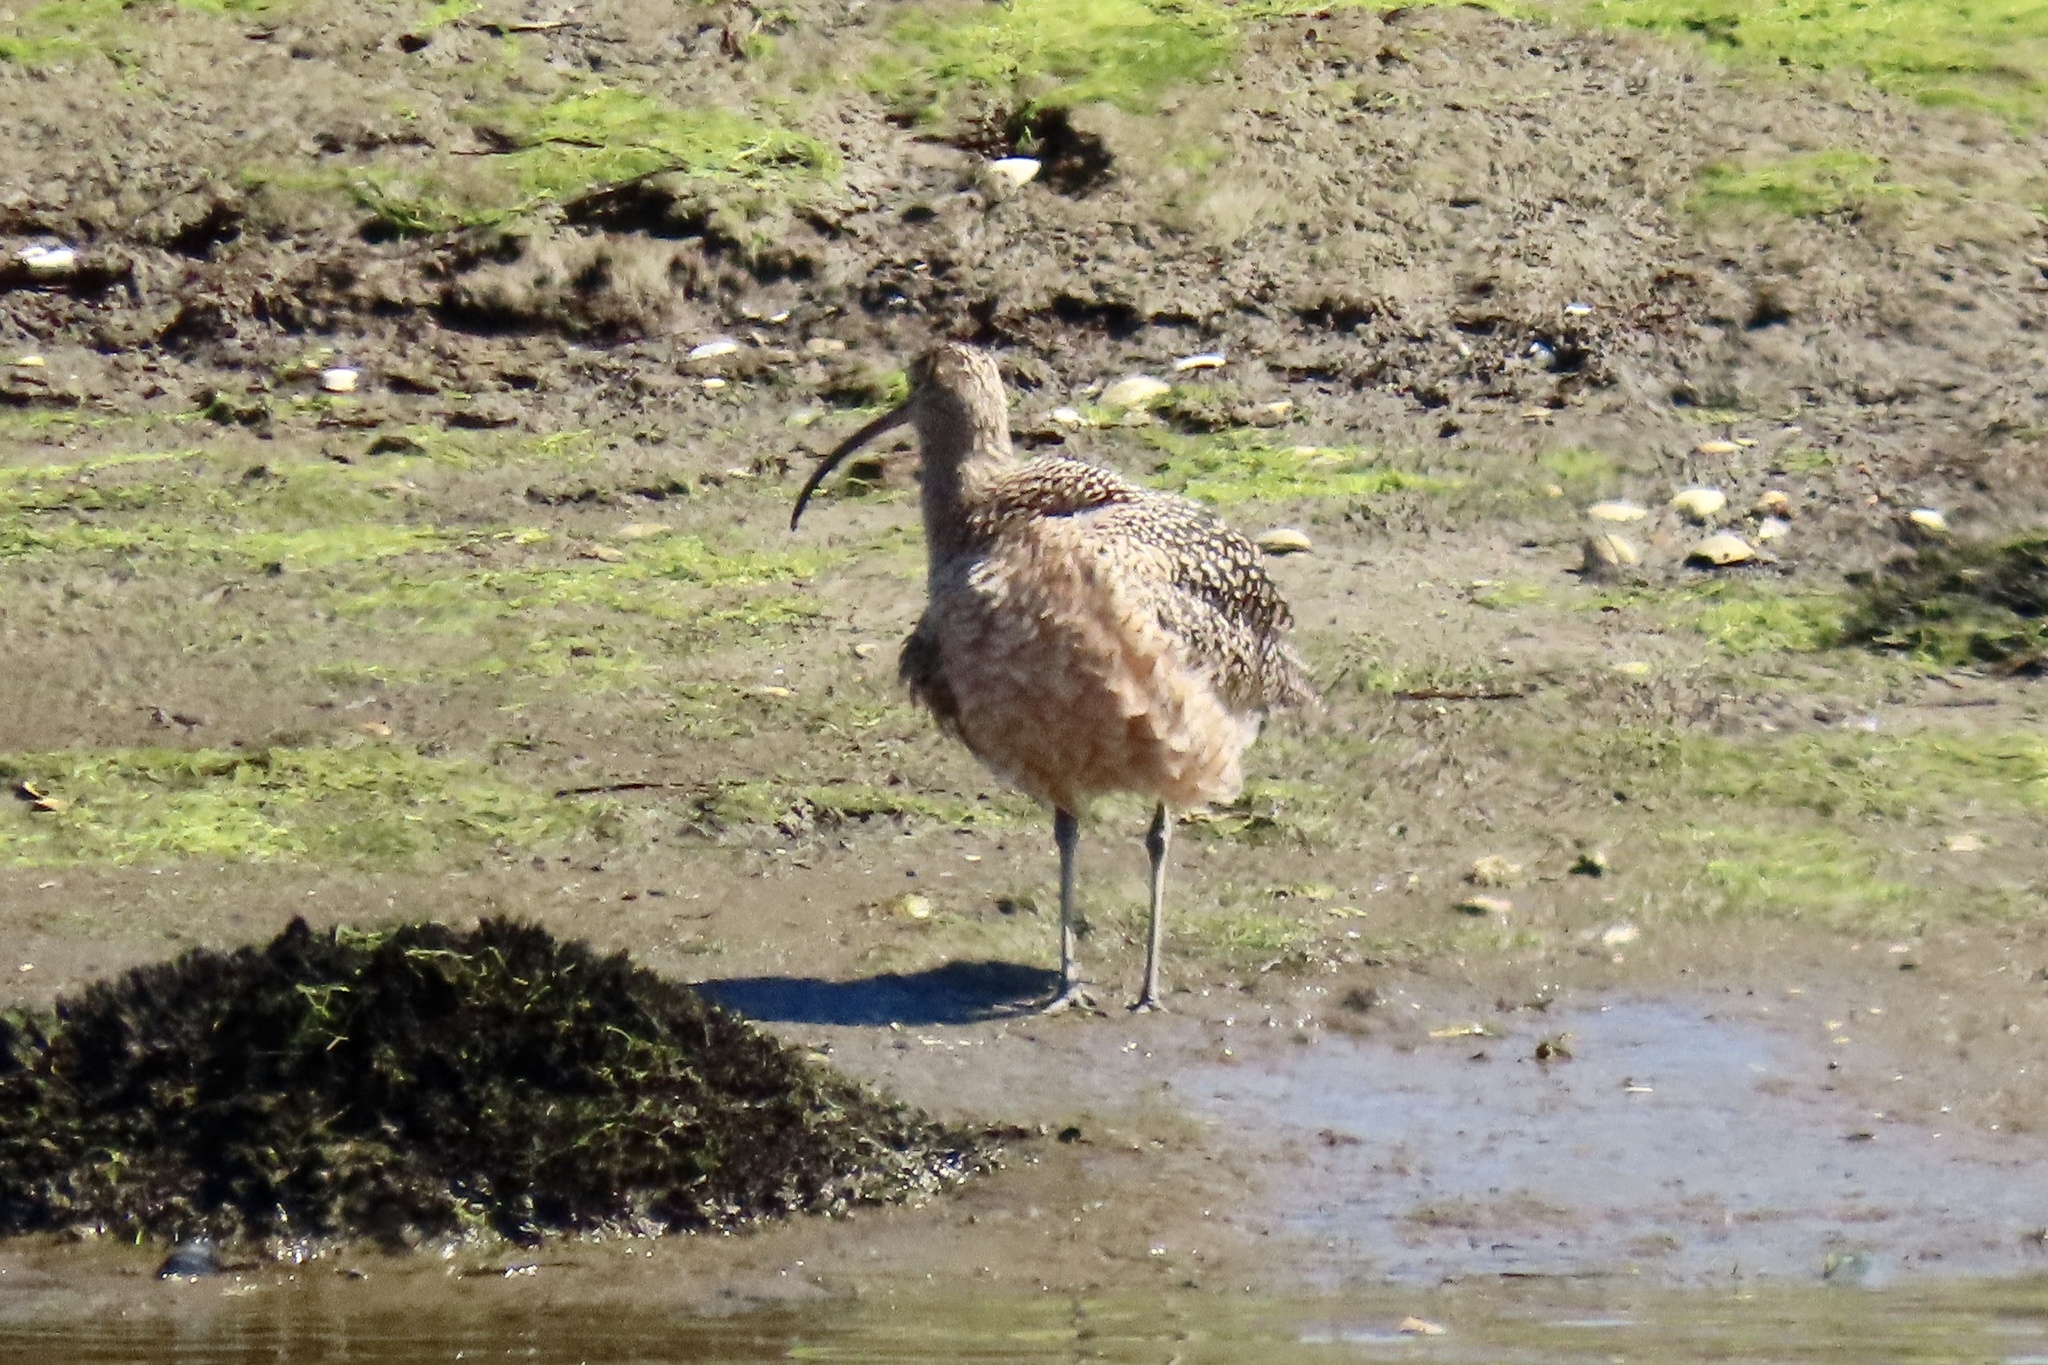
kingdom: Animalia
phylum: Chordata
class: Aves
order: Charadriiformes
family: Scolopacidae
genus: Numenius
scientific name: Numenius americanus
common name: Long-billed curlew
